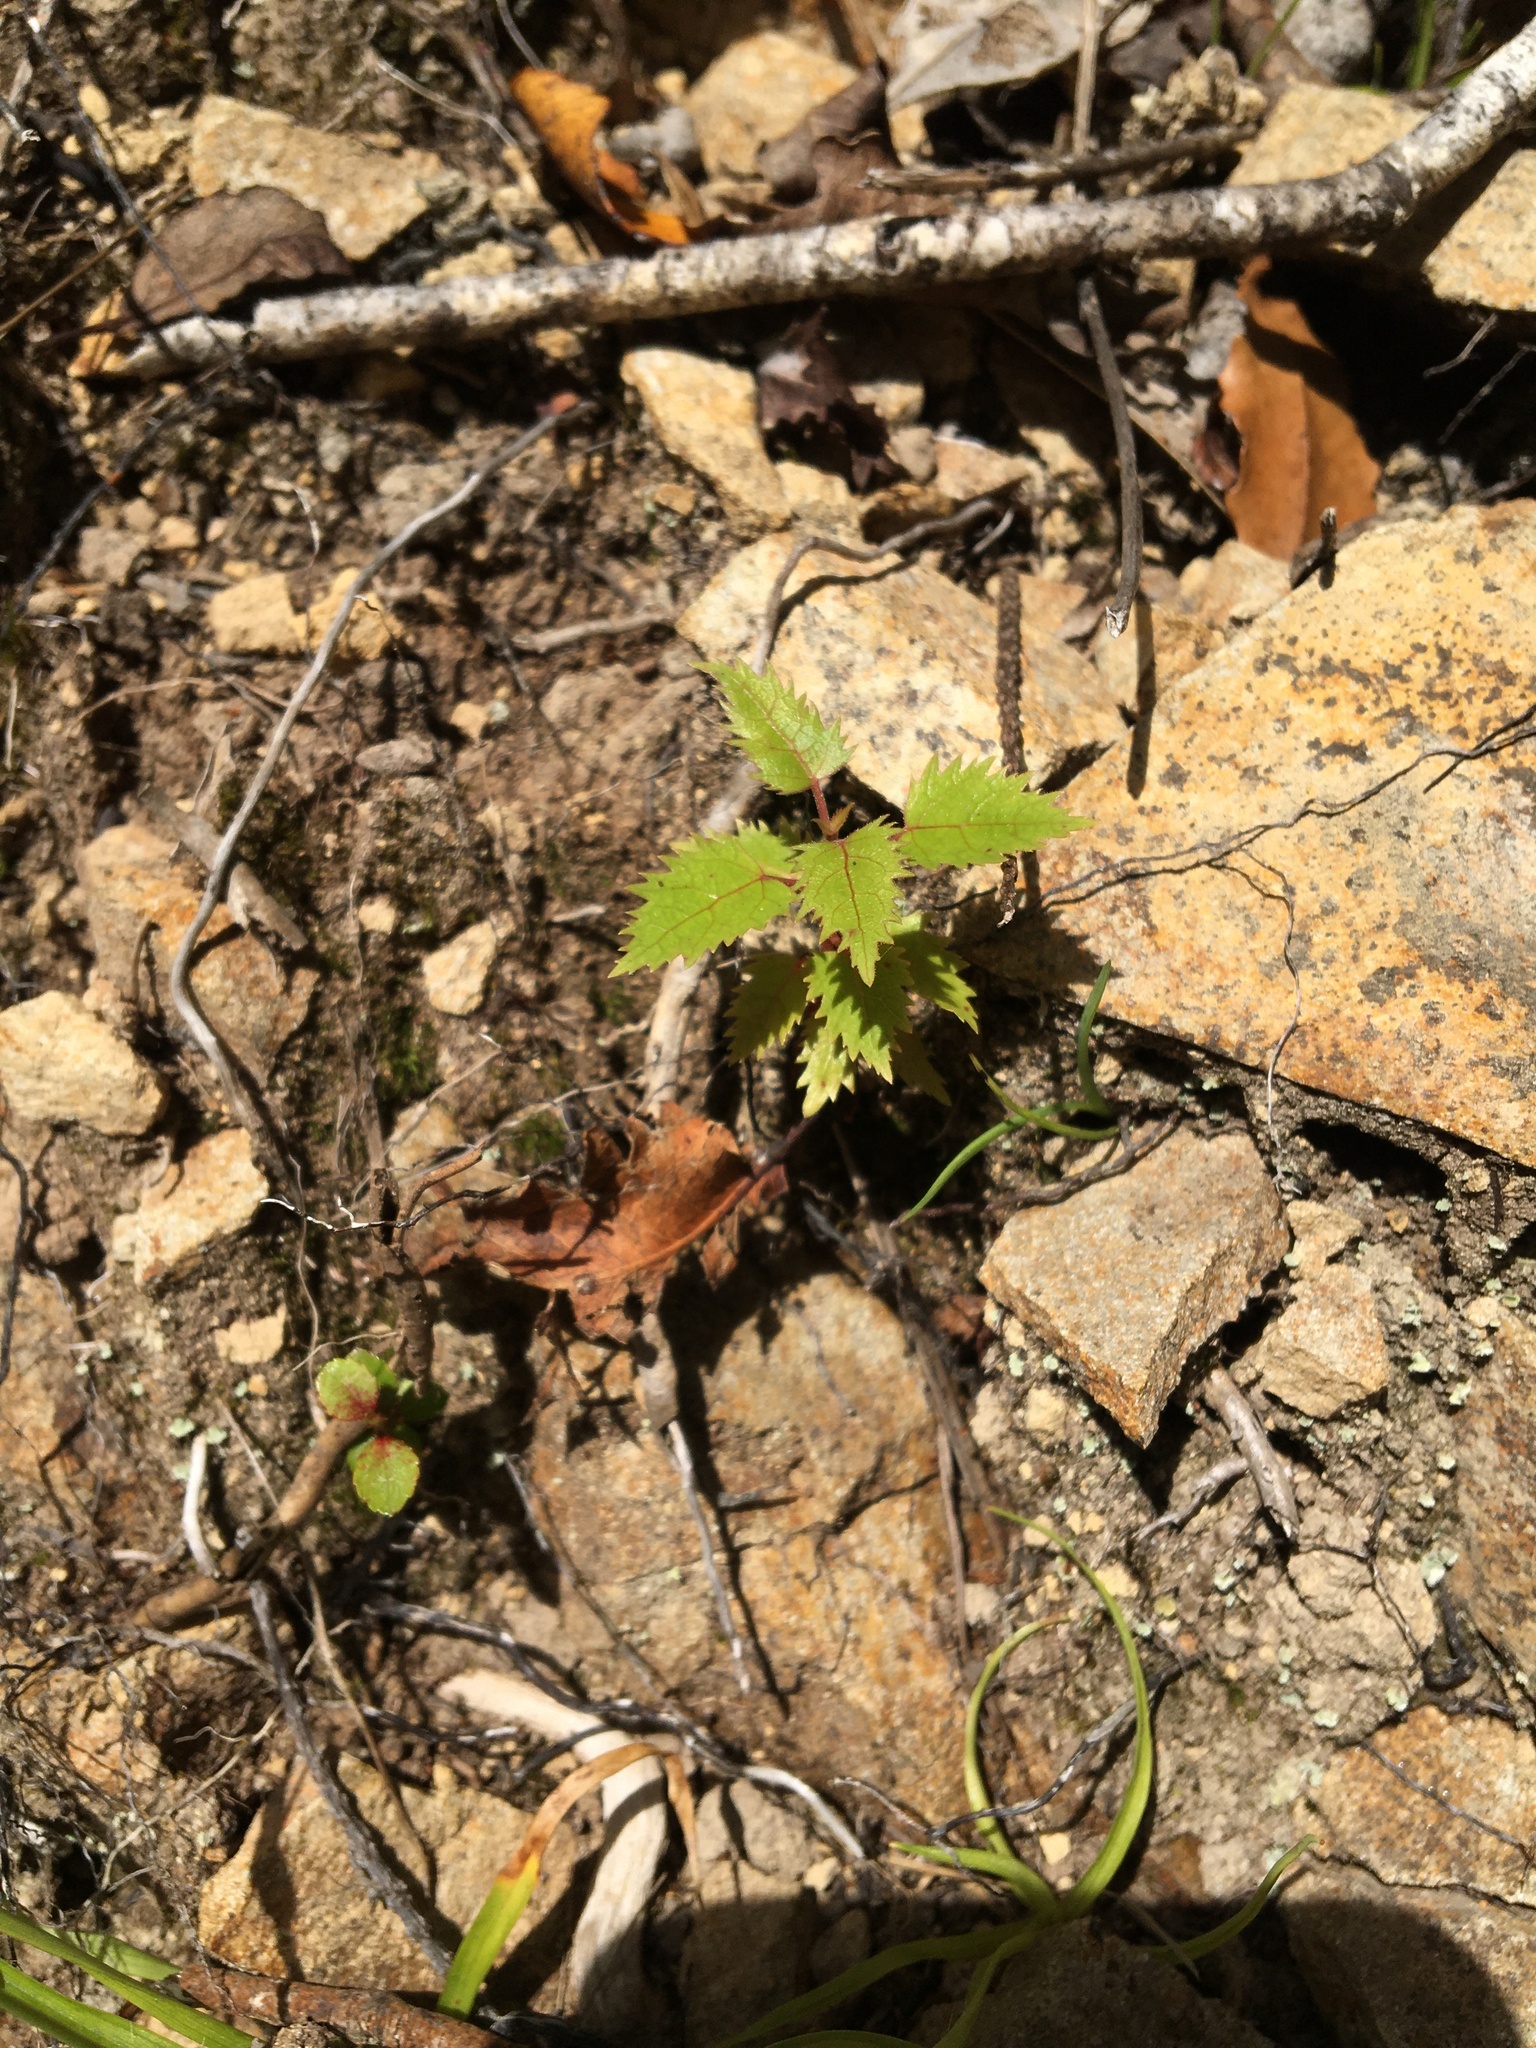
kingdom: Plantae
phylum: Tracheophyta
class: Magnoliopsida
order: Oxalidales
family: Elaeocarpaceae
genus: Aristotelia
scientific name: Aristotelia serrata
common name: New zealand wineberry
